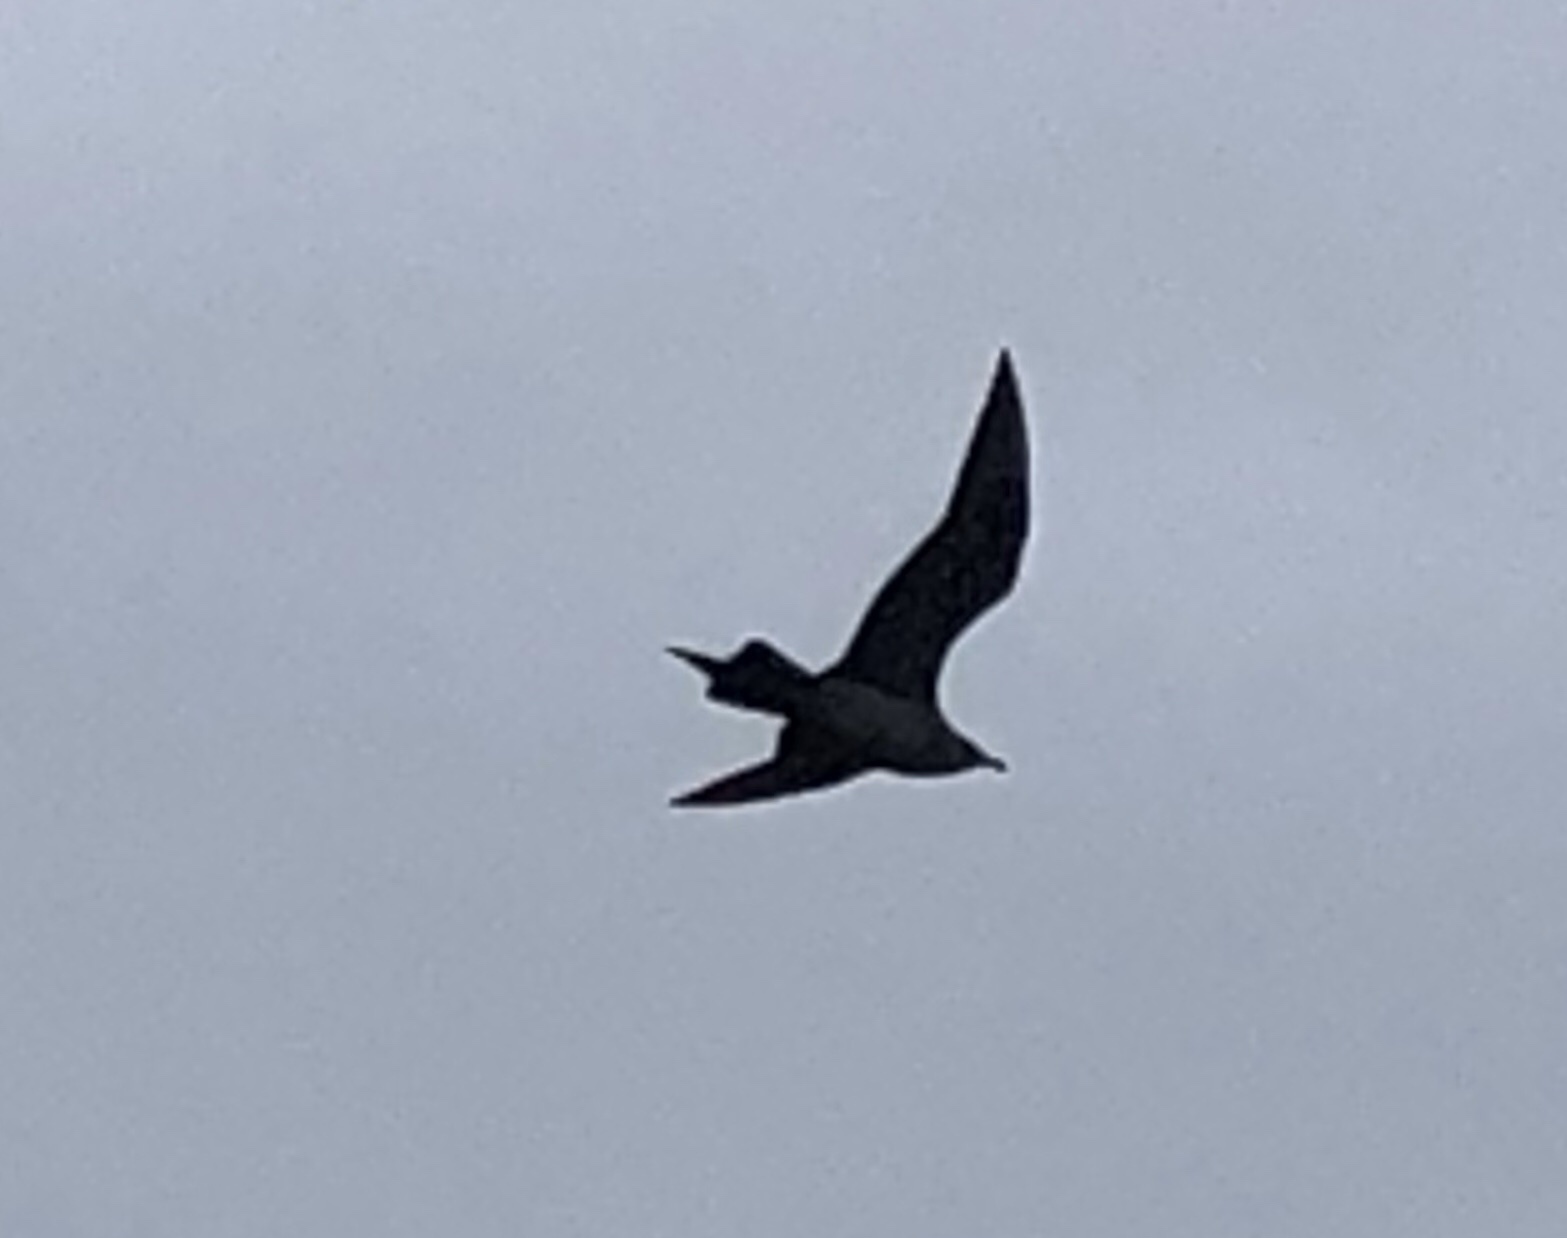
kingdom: Animalia
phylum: Chordata
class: Aves
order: Charadriiformes
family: Stercorariidae
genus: Stercorarius
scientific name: Stercorarius parasiticus
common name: Parasitic jaeger
